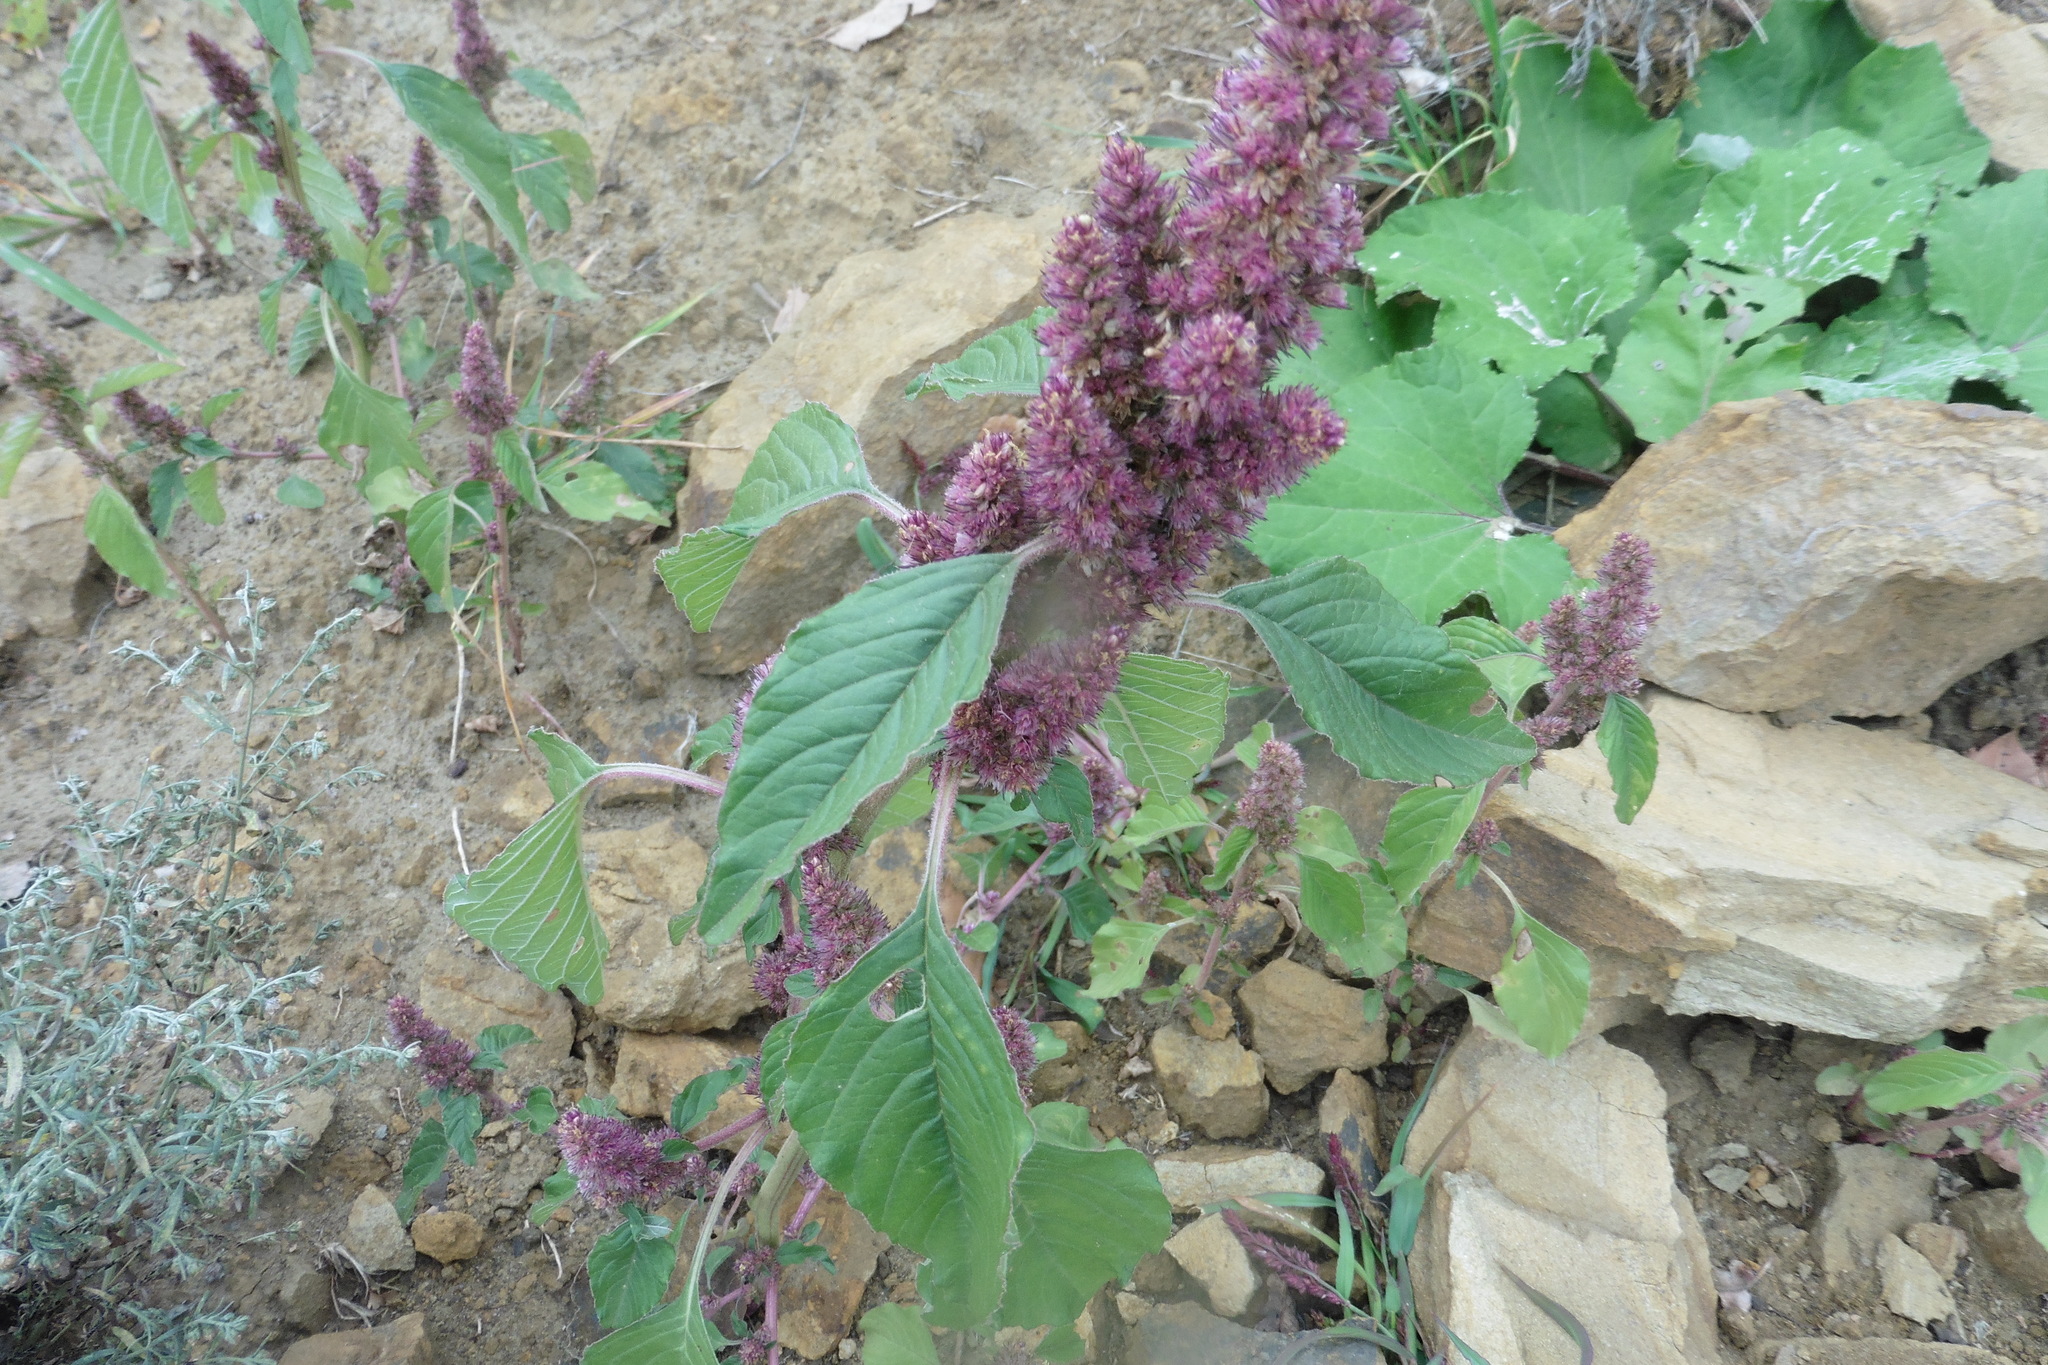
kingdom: Plantae
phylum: Tracheophyta
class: Magnoliopsida
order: Caryophyllales
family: Amaranthaceae
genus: Amaranthus
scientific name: Amaranthus retroflexus
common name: Redroot amaranth
